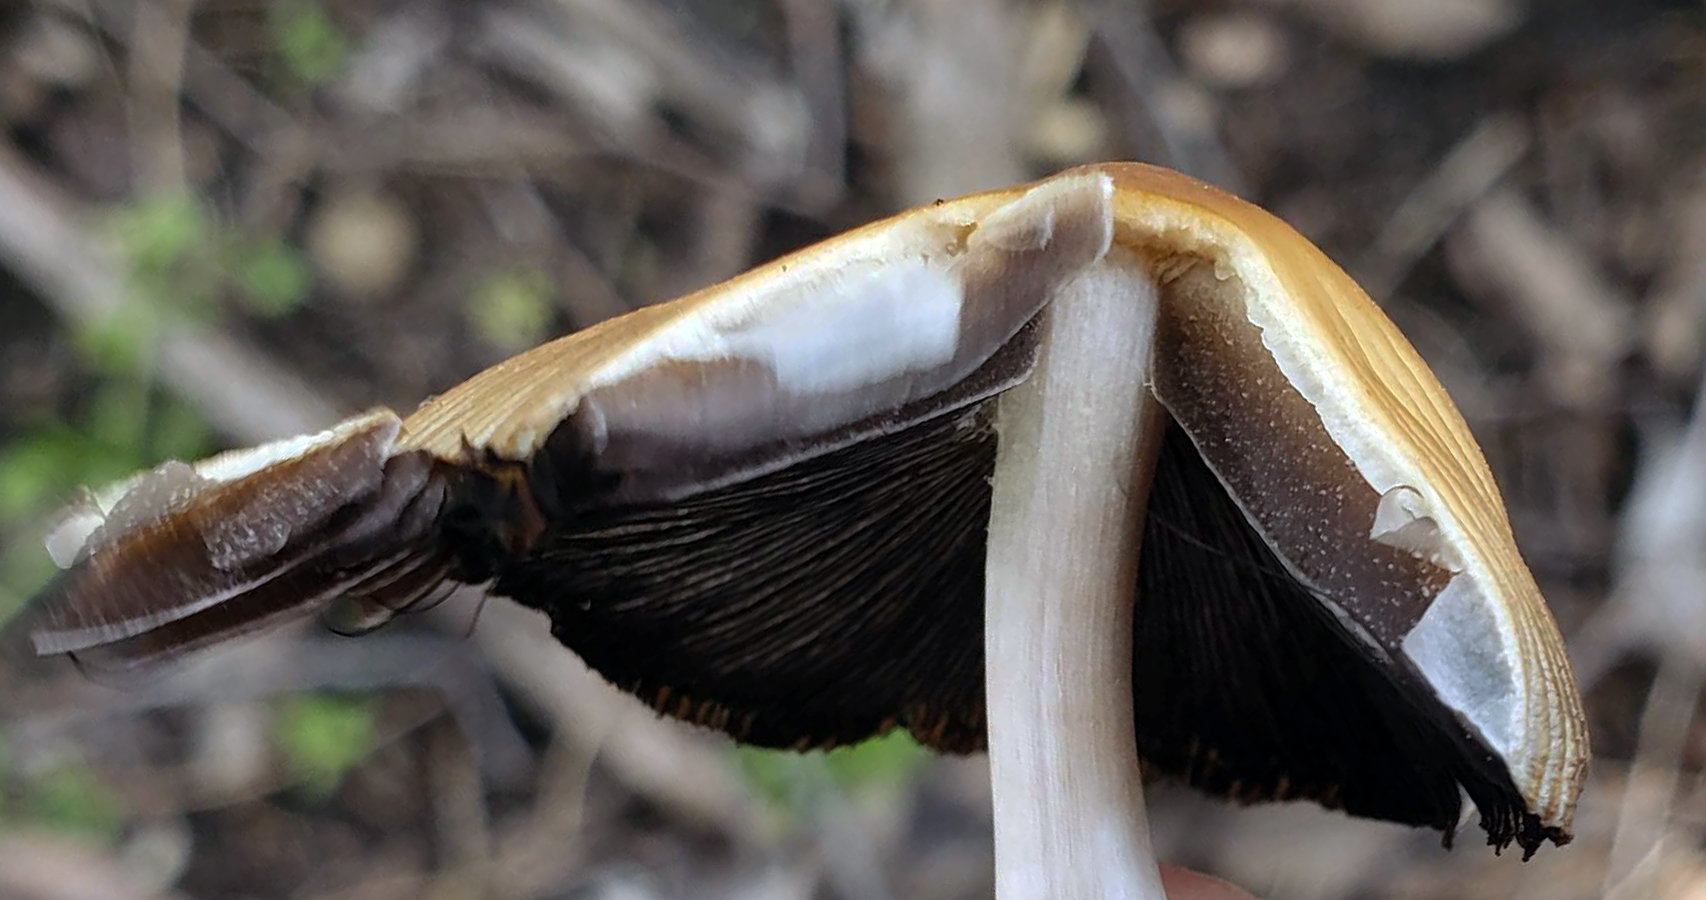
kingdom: Fungi
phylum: Basidiomycota
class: Agaricomycetes
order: Agaricales
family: Psathyrellaceae
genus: Coprinellus
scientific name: Coprinellus micaceus
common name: Glistening ink-cap
